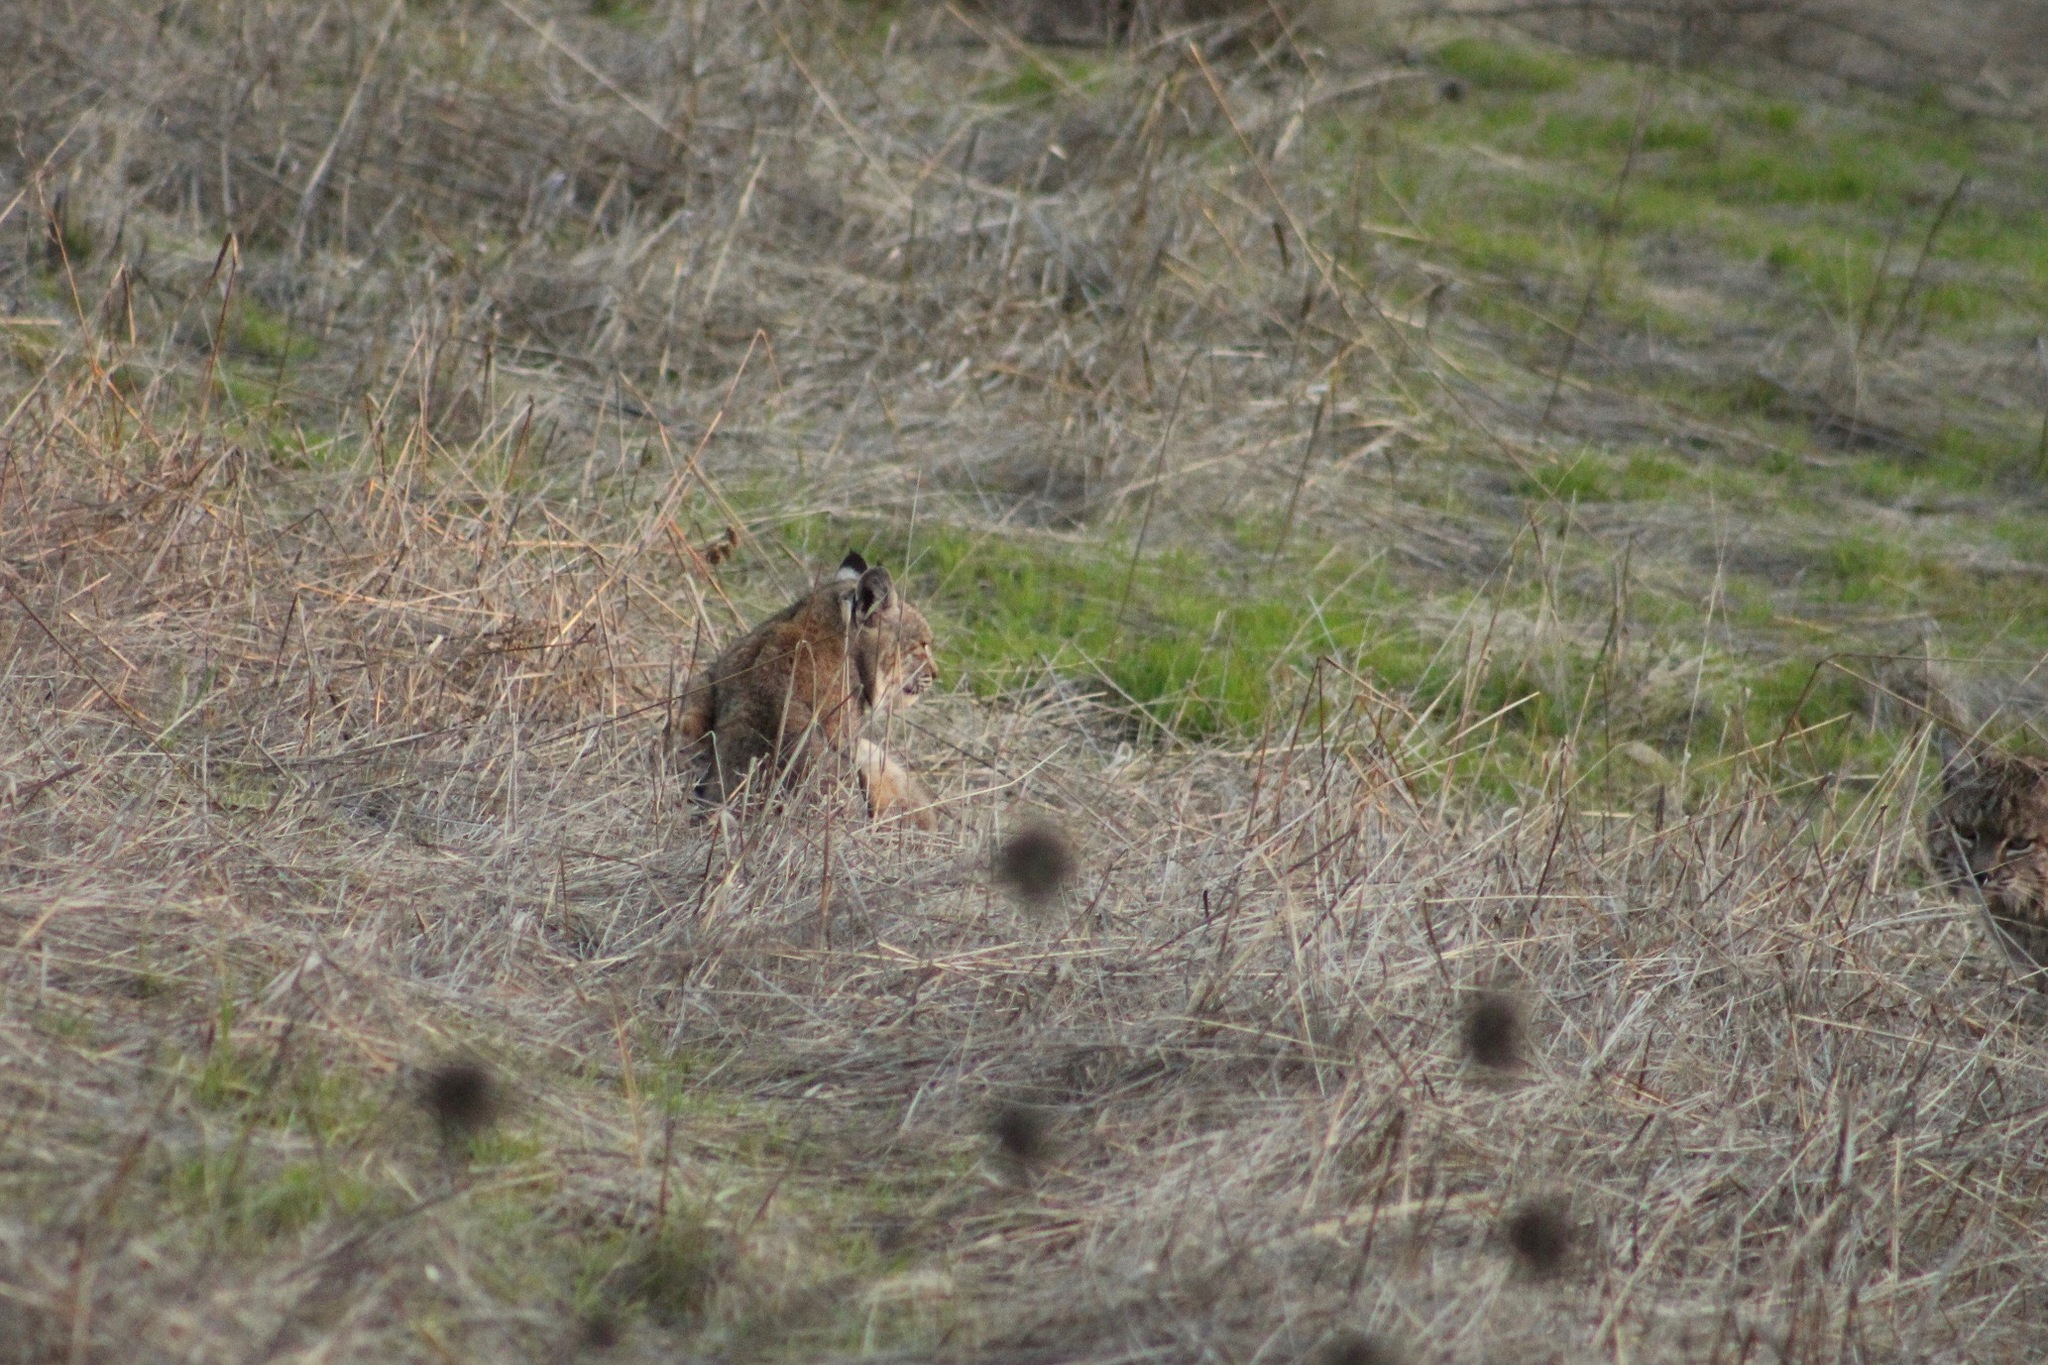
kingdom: Animalia
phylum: Chordata
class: Mammalia
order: Carnivora
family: Felidae
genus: Lynx
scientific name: Lynx rufus
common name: Bobcat
